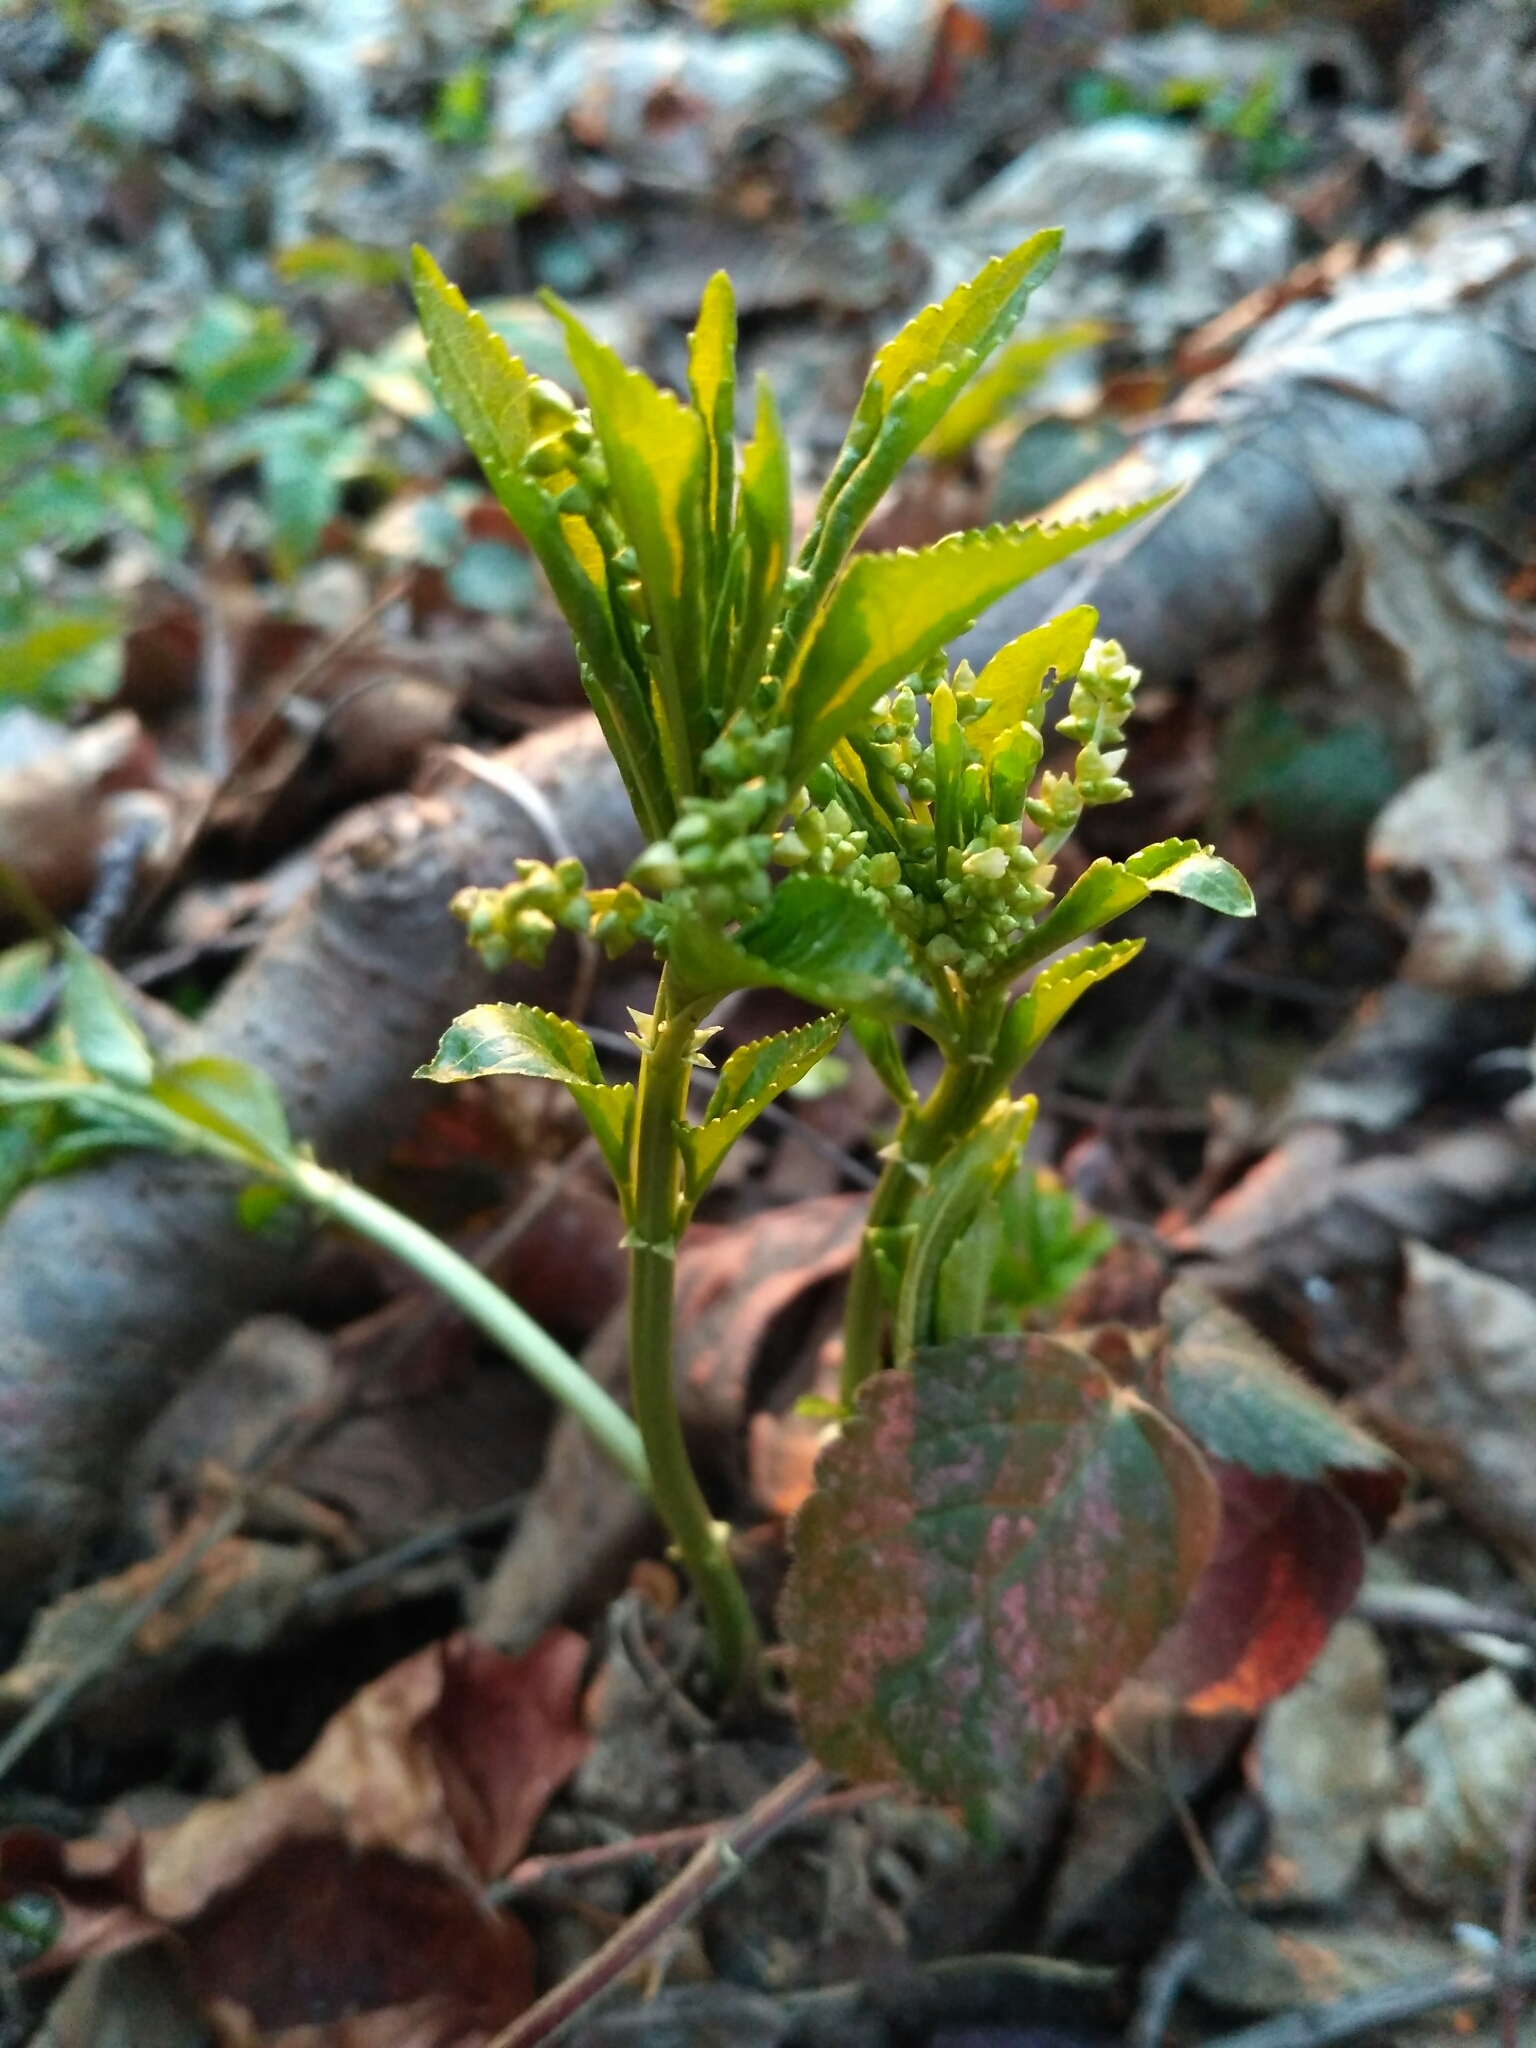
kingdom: Plantae
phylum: Tracheophyta
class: Magnoliopsida
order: Malpighiales
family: Euphorbiaceae
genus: Mercurialis
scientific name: Mercurialis perennis
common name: Dog mercury
